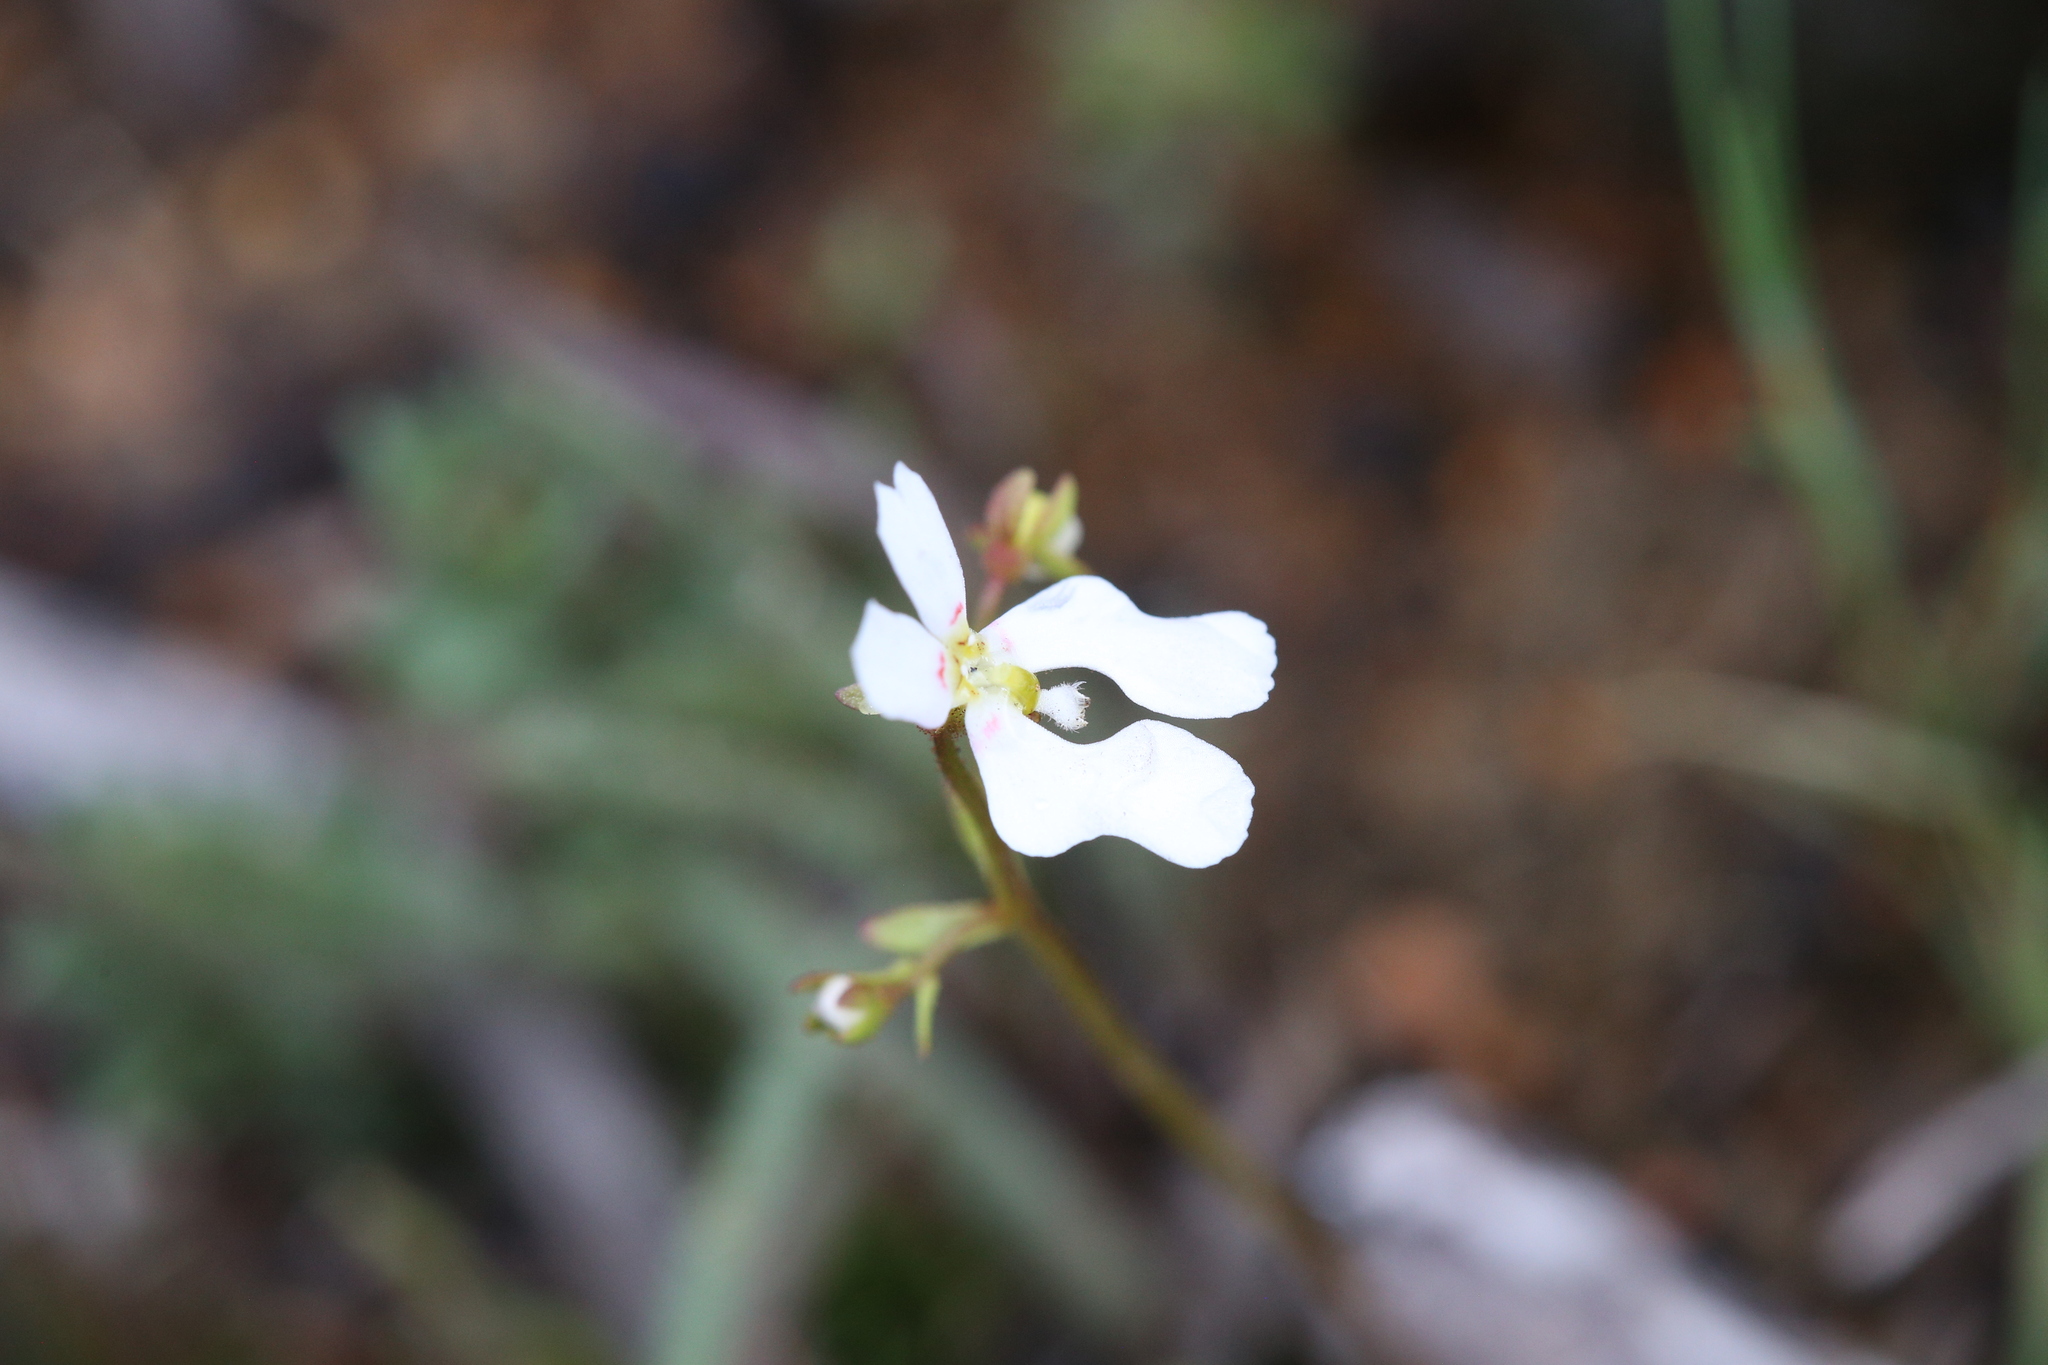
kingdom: Plantae
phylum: Tracheophyta
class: Magnoliopsida
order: Asterales
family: Stylidiaceae
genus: Stylidium
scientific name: Stylidium androsaceum
